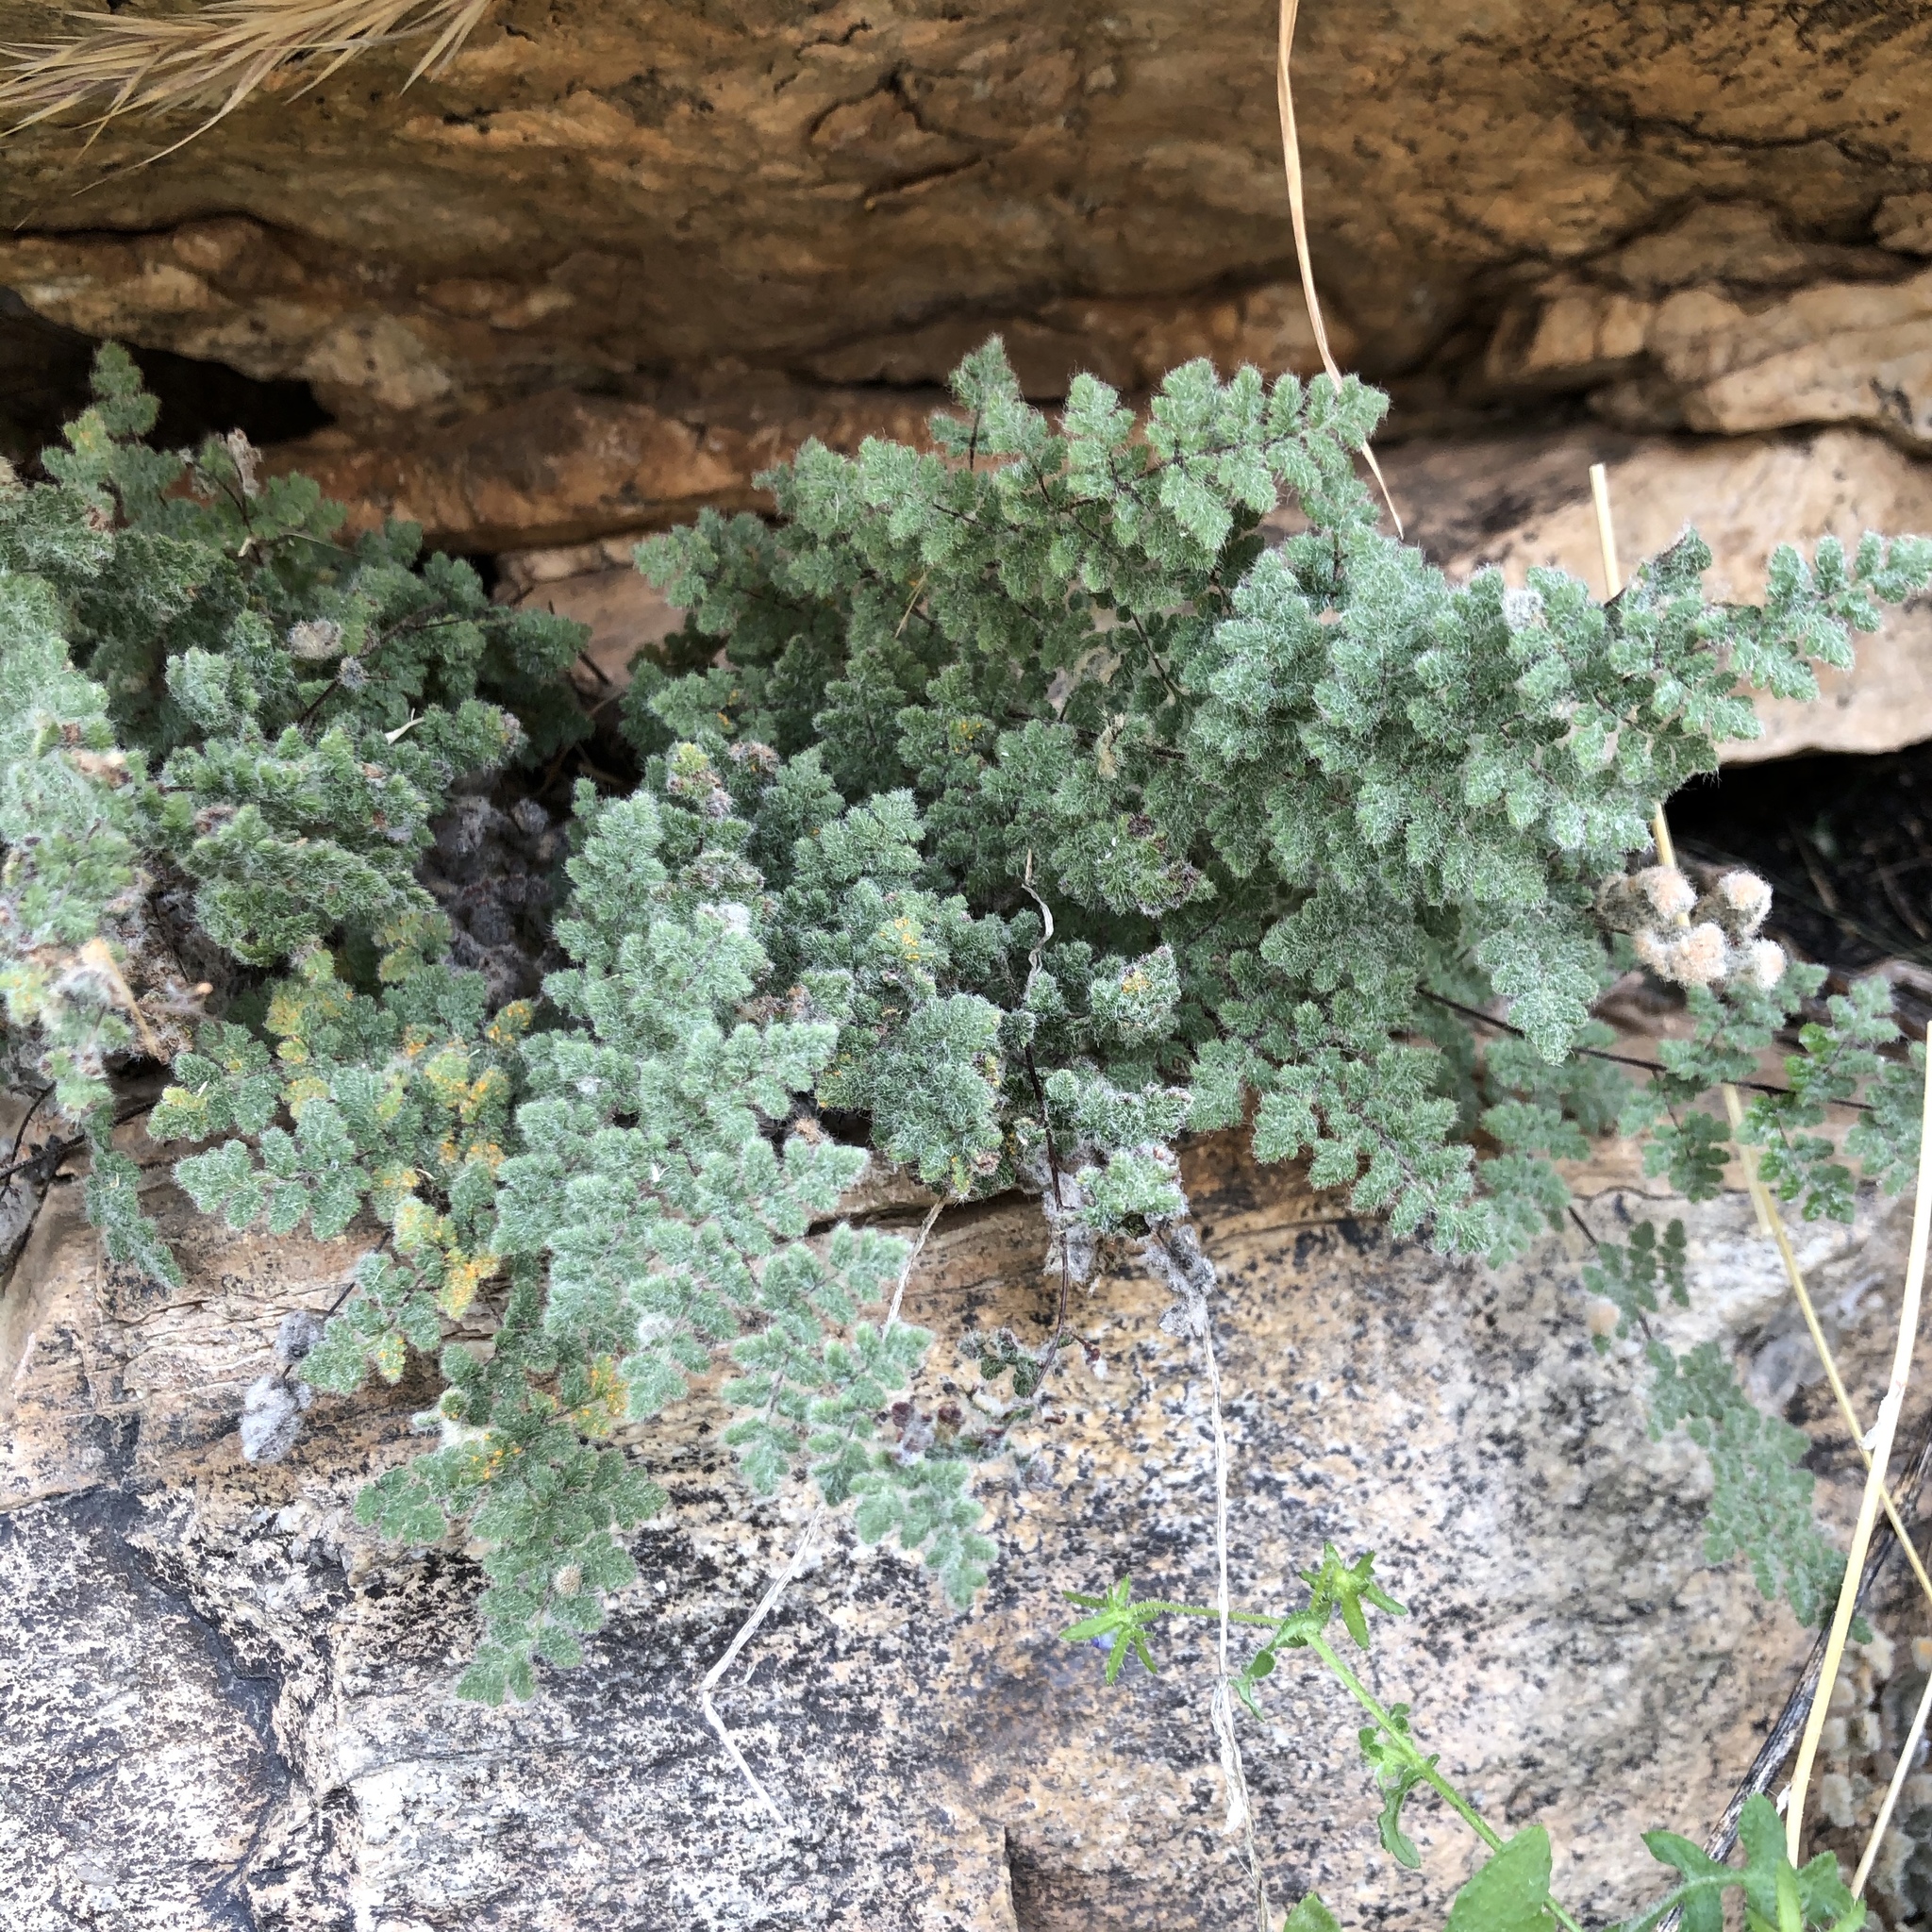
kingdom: Plantae
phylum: Tracheophyta
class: Polypodiopsida
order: Polypodiales
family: Pteridaceae
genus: Myriopteris
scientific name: Myriopteris parryi
